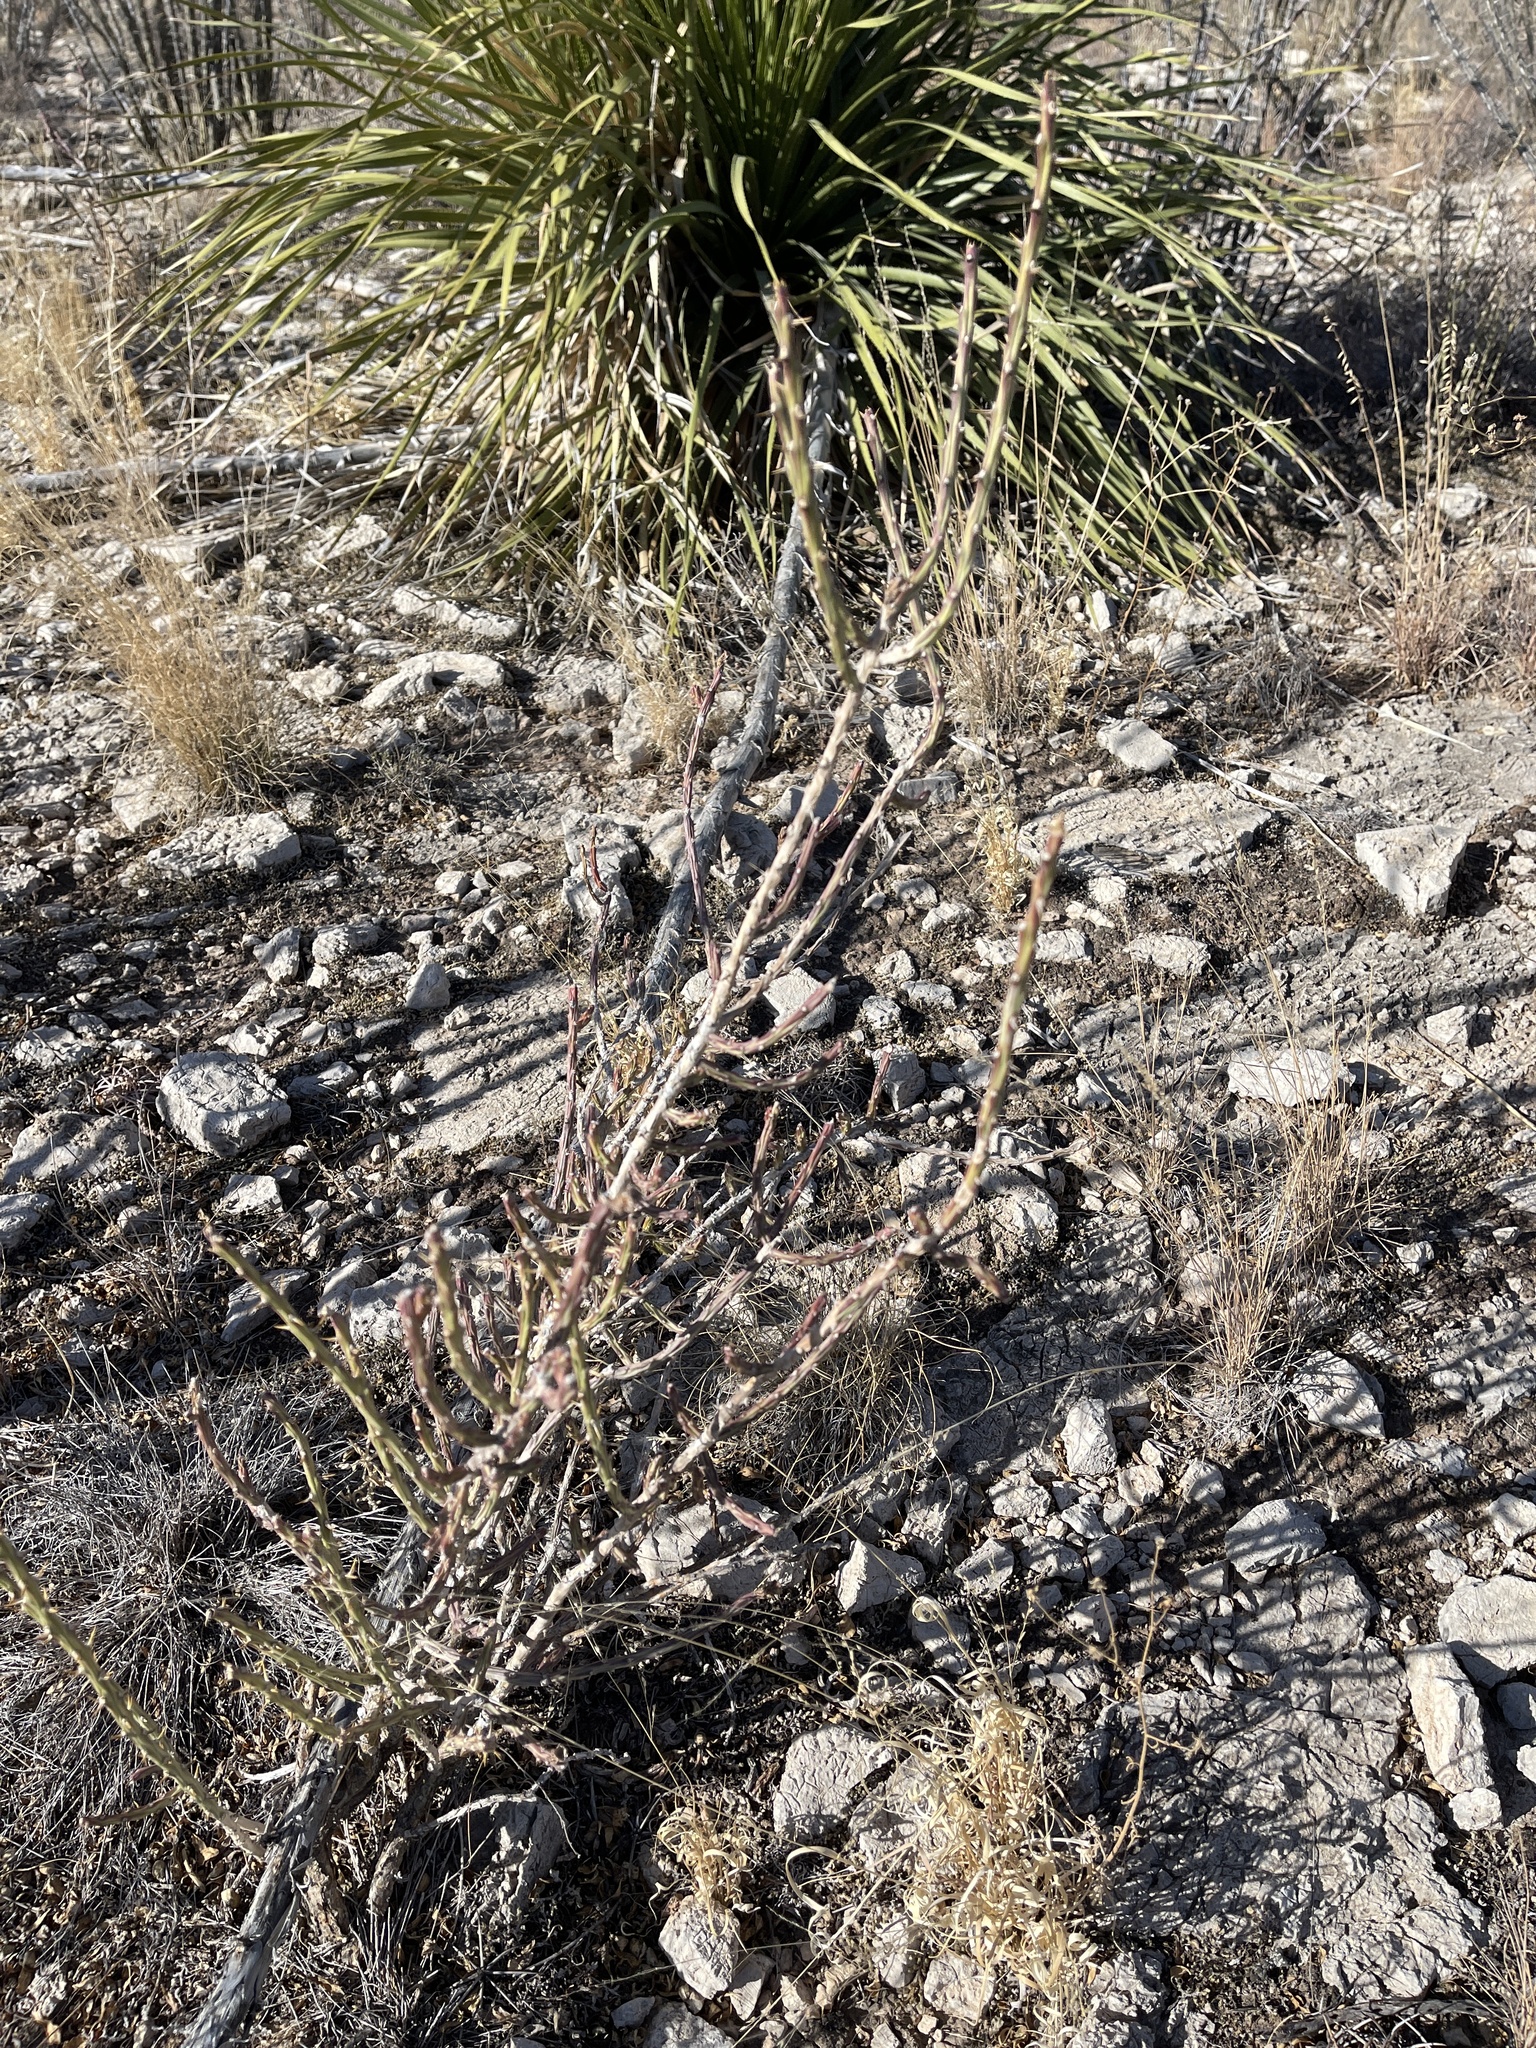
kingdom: Plantae
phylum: Tracheophyta
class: Magnoliopsida
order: Caryophyllales
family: Cactaceae
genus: Cylindropuntia
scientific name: Cylindropuntia leptocaulis
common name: Christmas cactus
